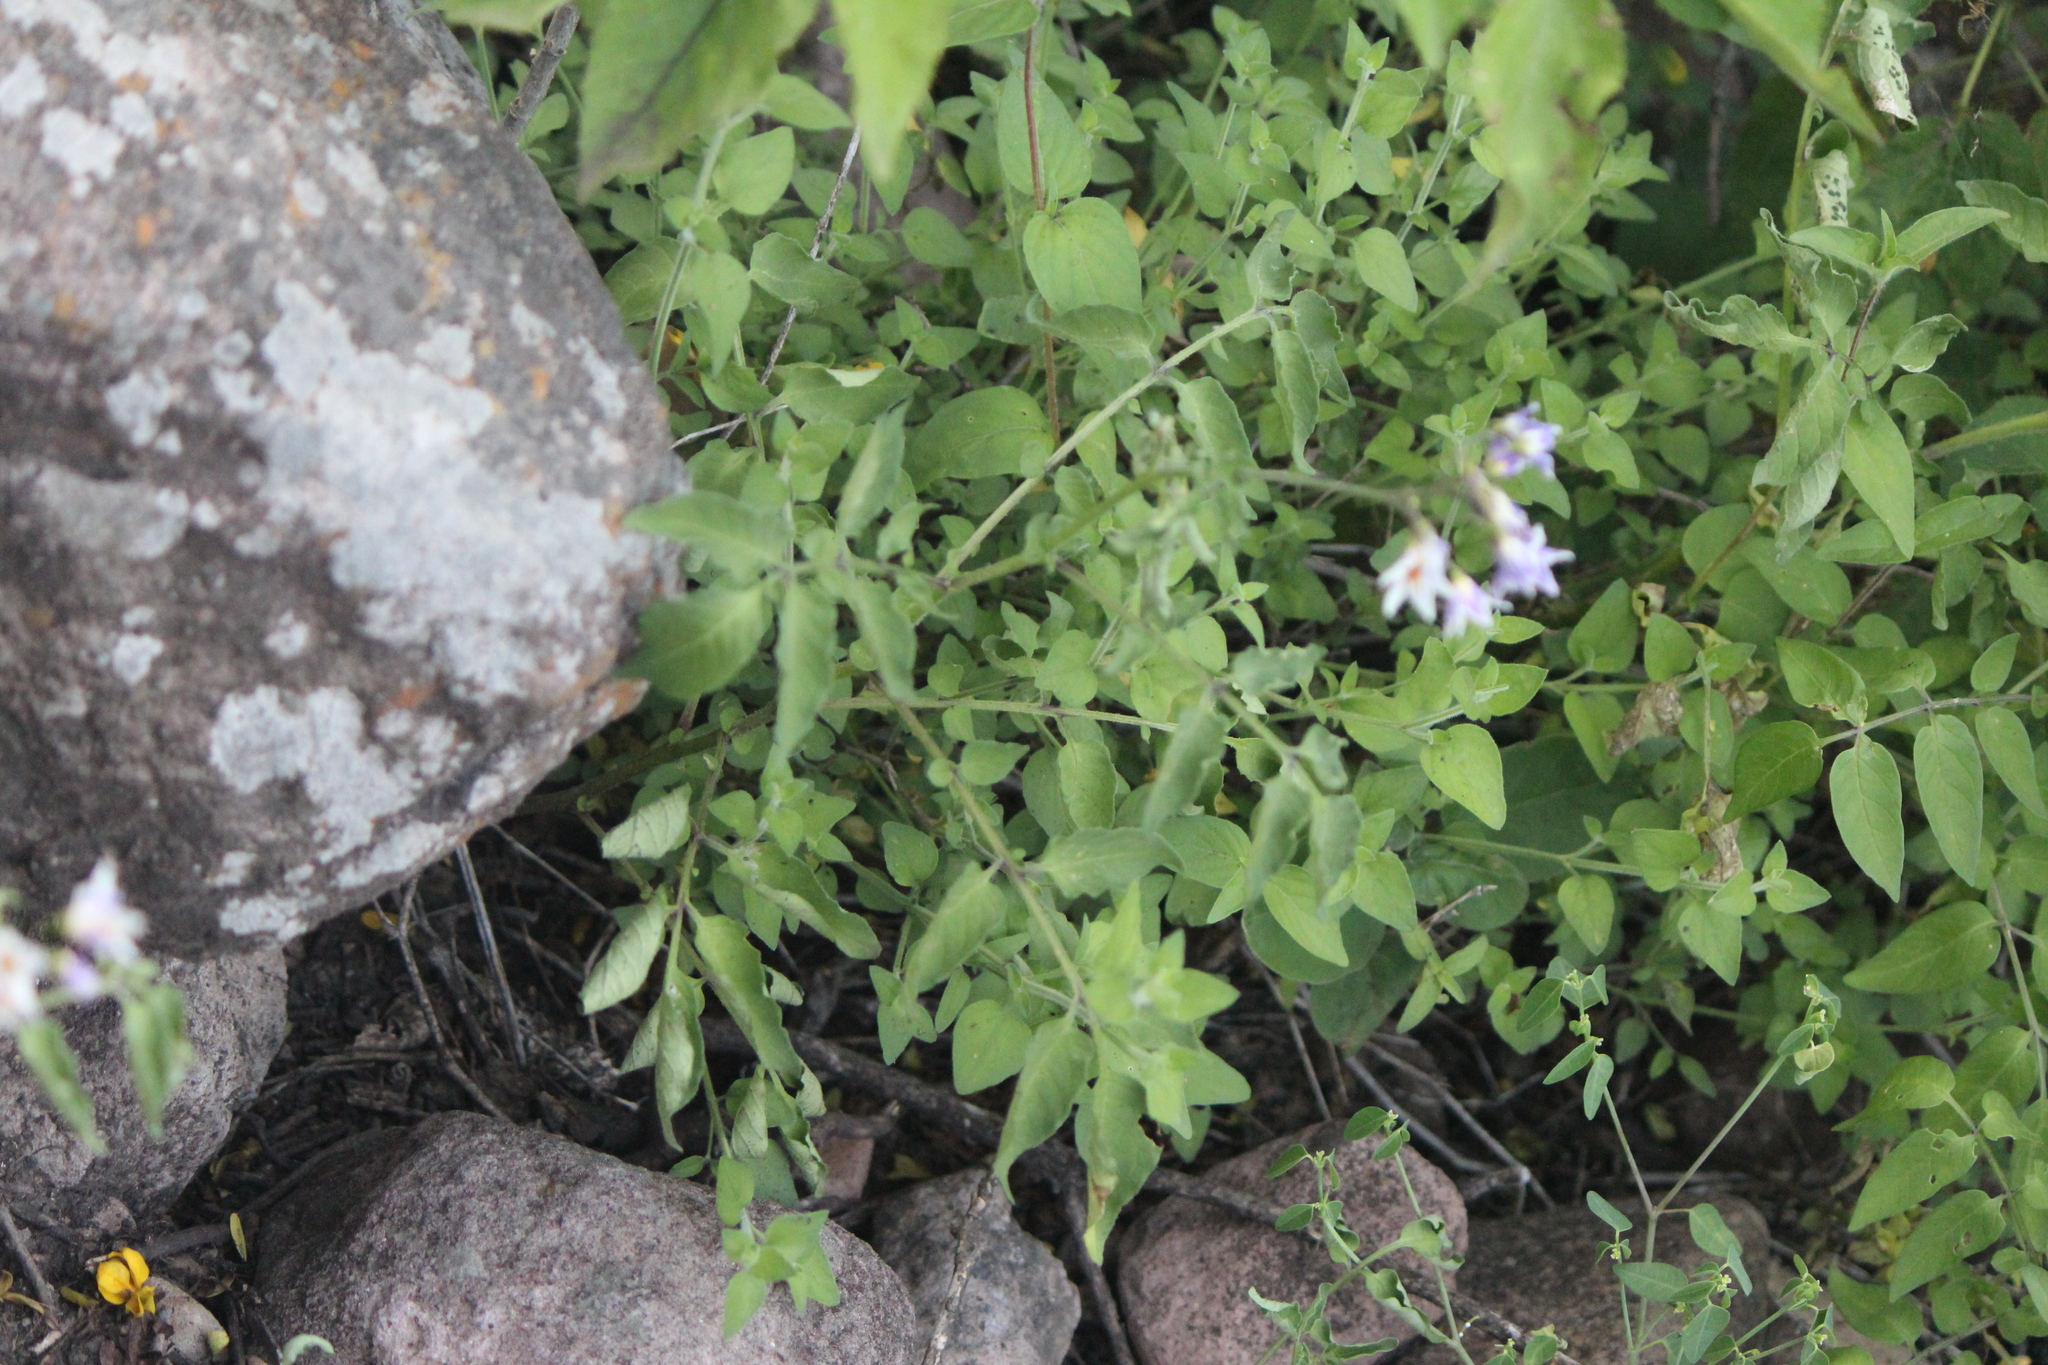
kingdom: Plantae
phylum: Tracheophyta
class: Magnoliopsida
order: Solanales
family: Solanaceae
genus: Solanum
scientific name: Solanum ehrenbergii
